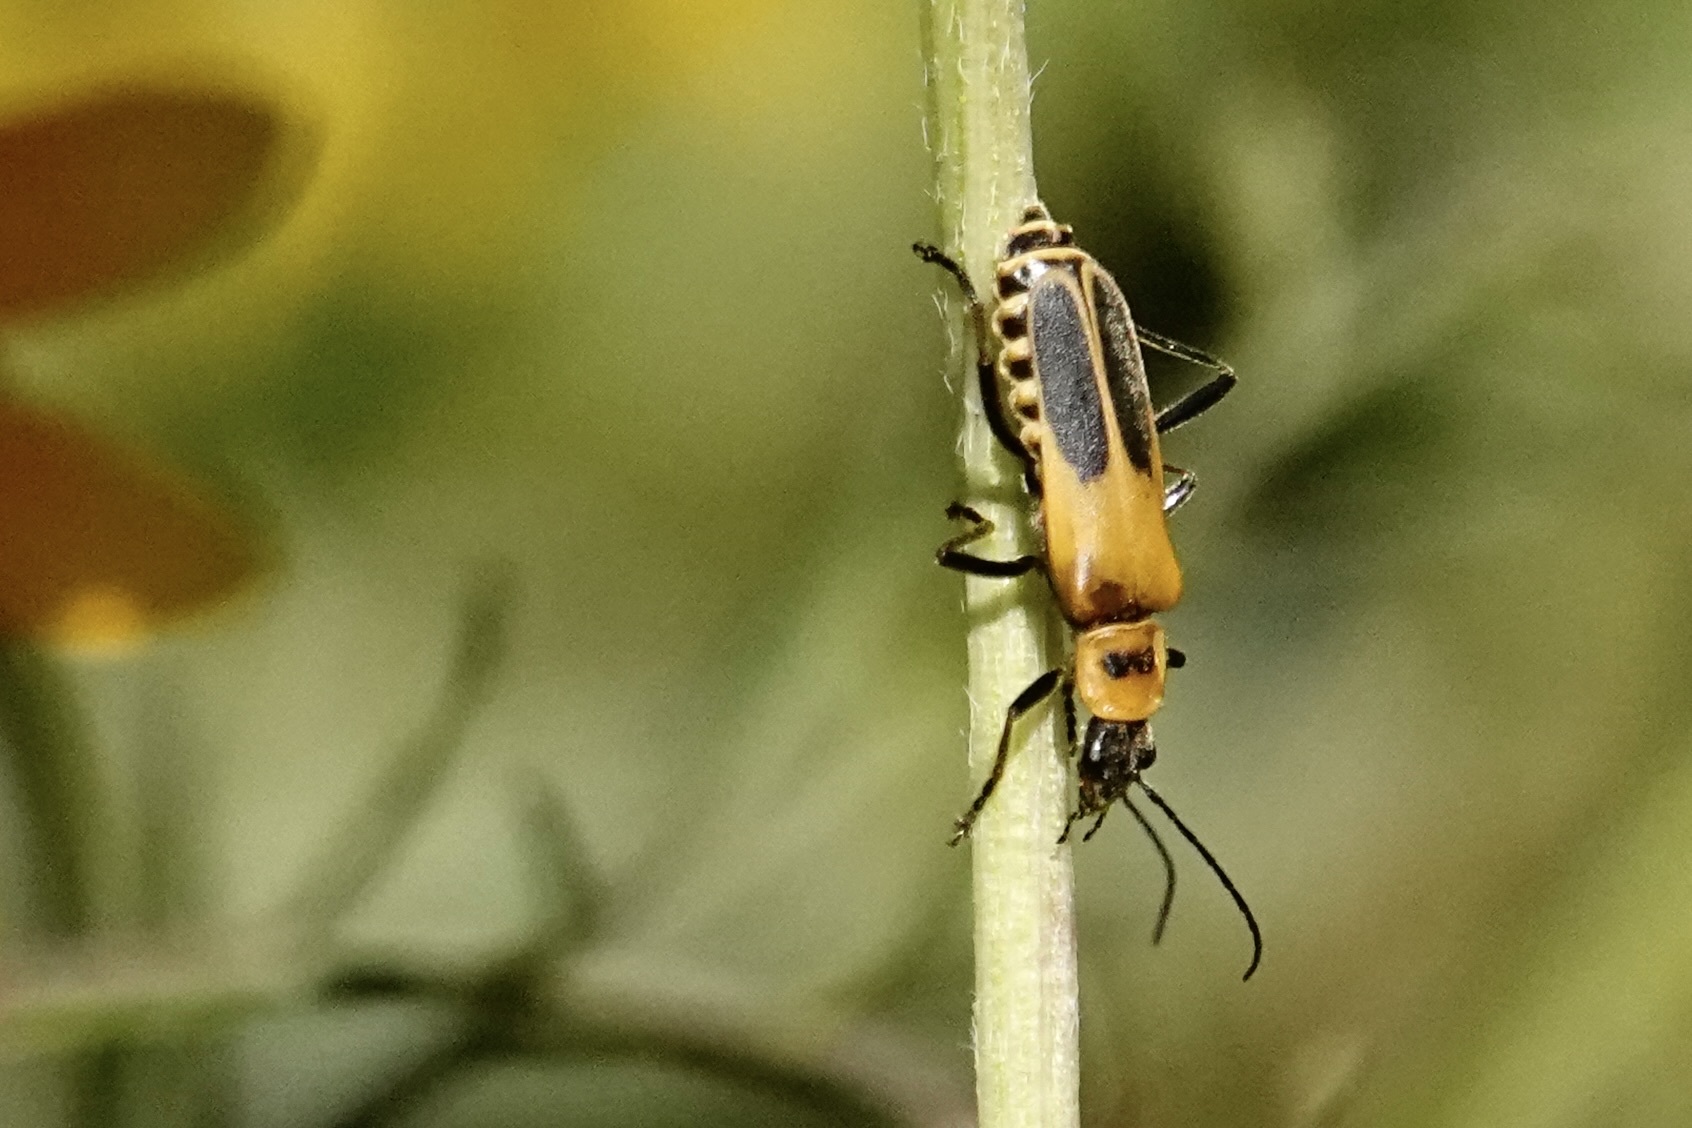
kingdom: Animalia
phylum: Arthropoda
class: Insecta
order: Coleoptera
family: Cantharidae
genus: Chauliognathus
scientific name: Chauliognathus pensylvanicus
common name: Goldenrod soldier beetle
